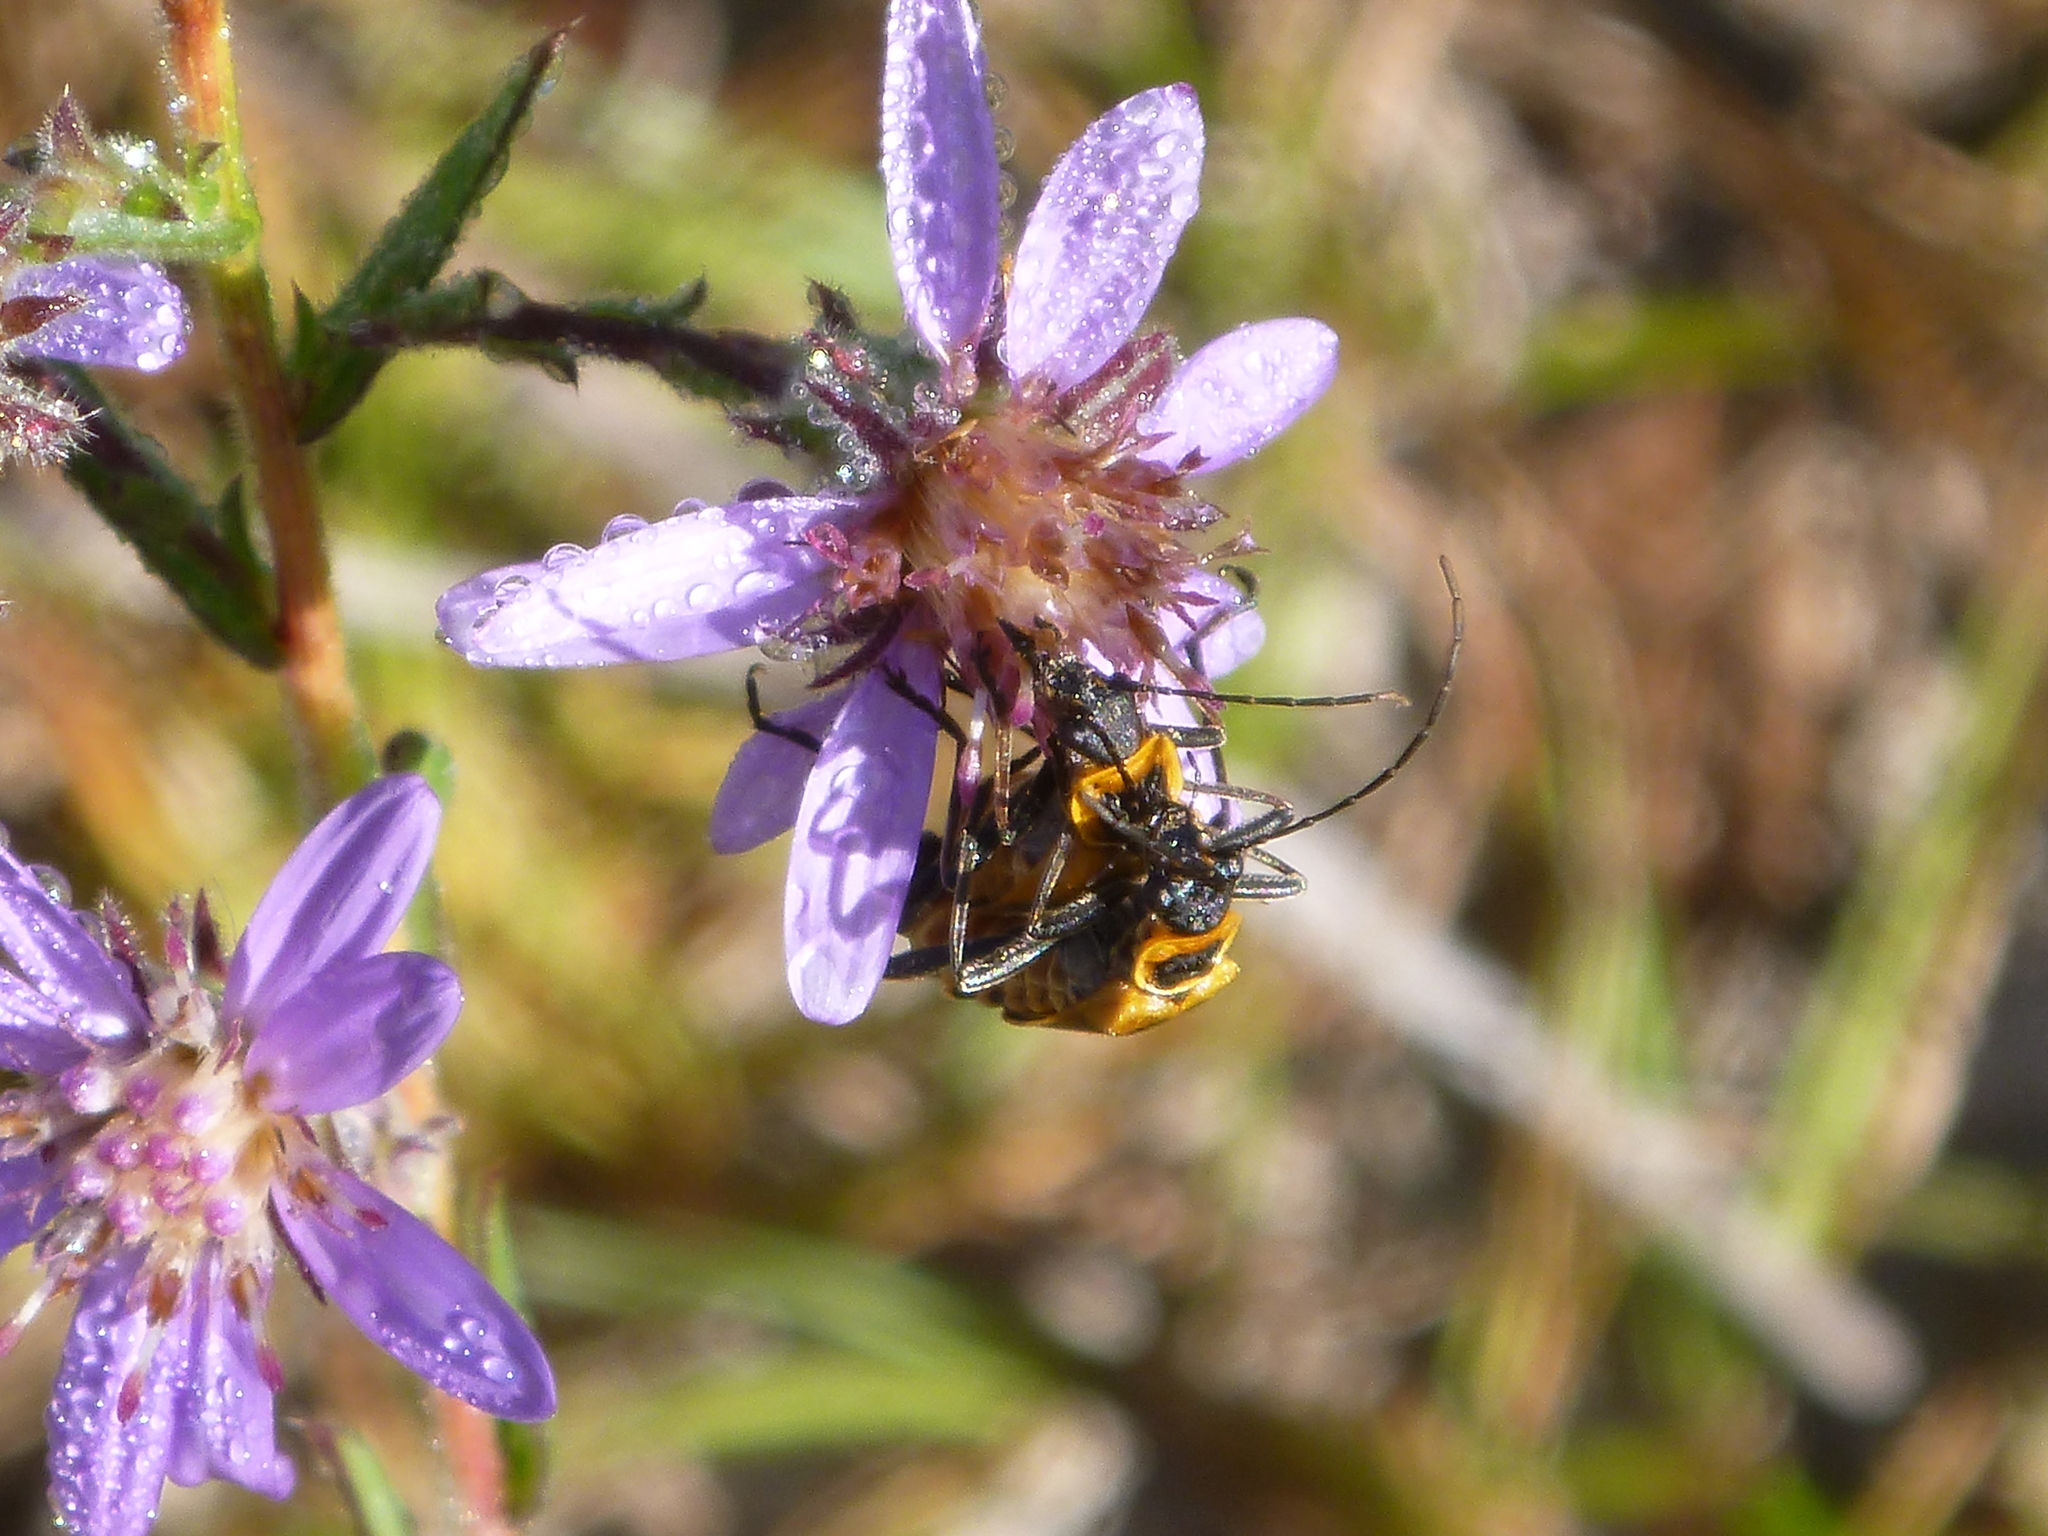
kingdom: Animalia
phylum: Arthropoda
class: Insecta
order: Coleoptera
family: Cantharidae
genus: Chauliognathus
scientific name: Chauliognathus pensylvanicus
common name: Goldenrod soldier beetle
